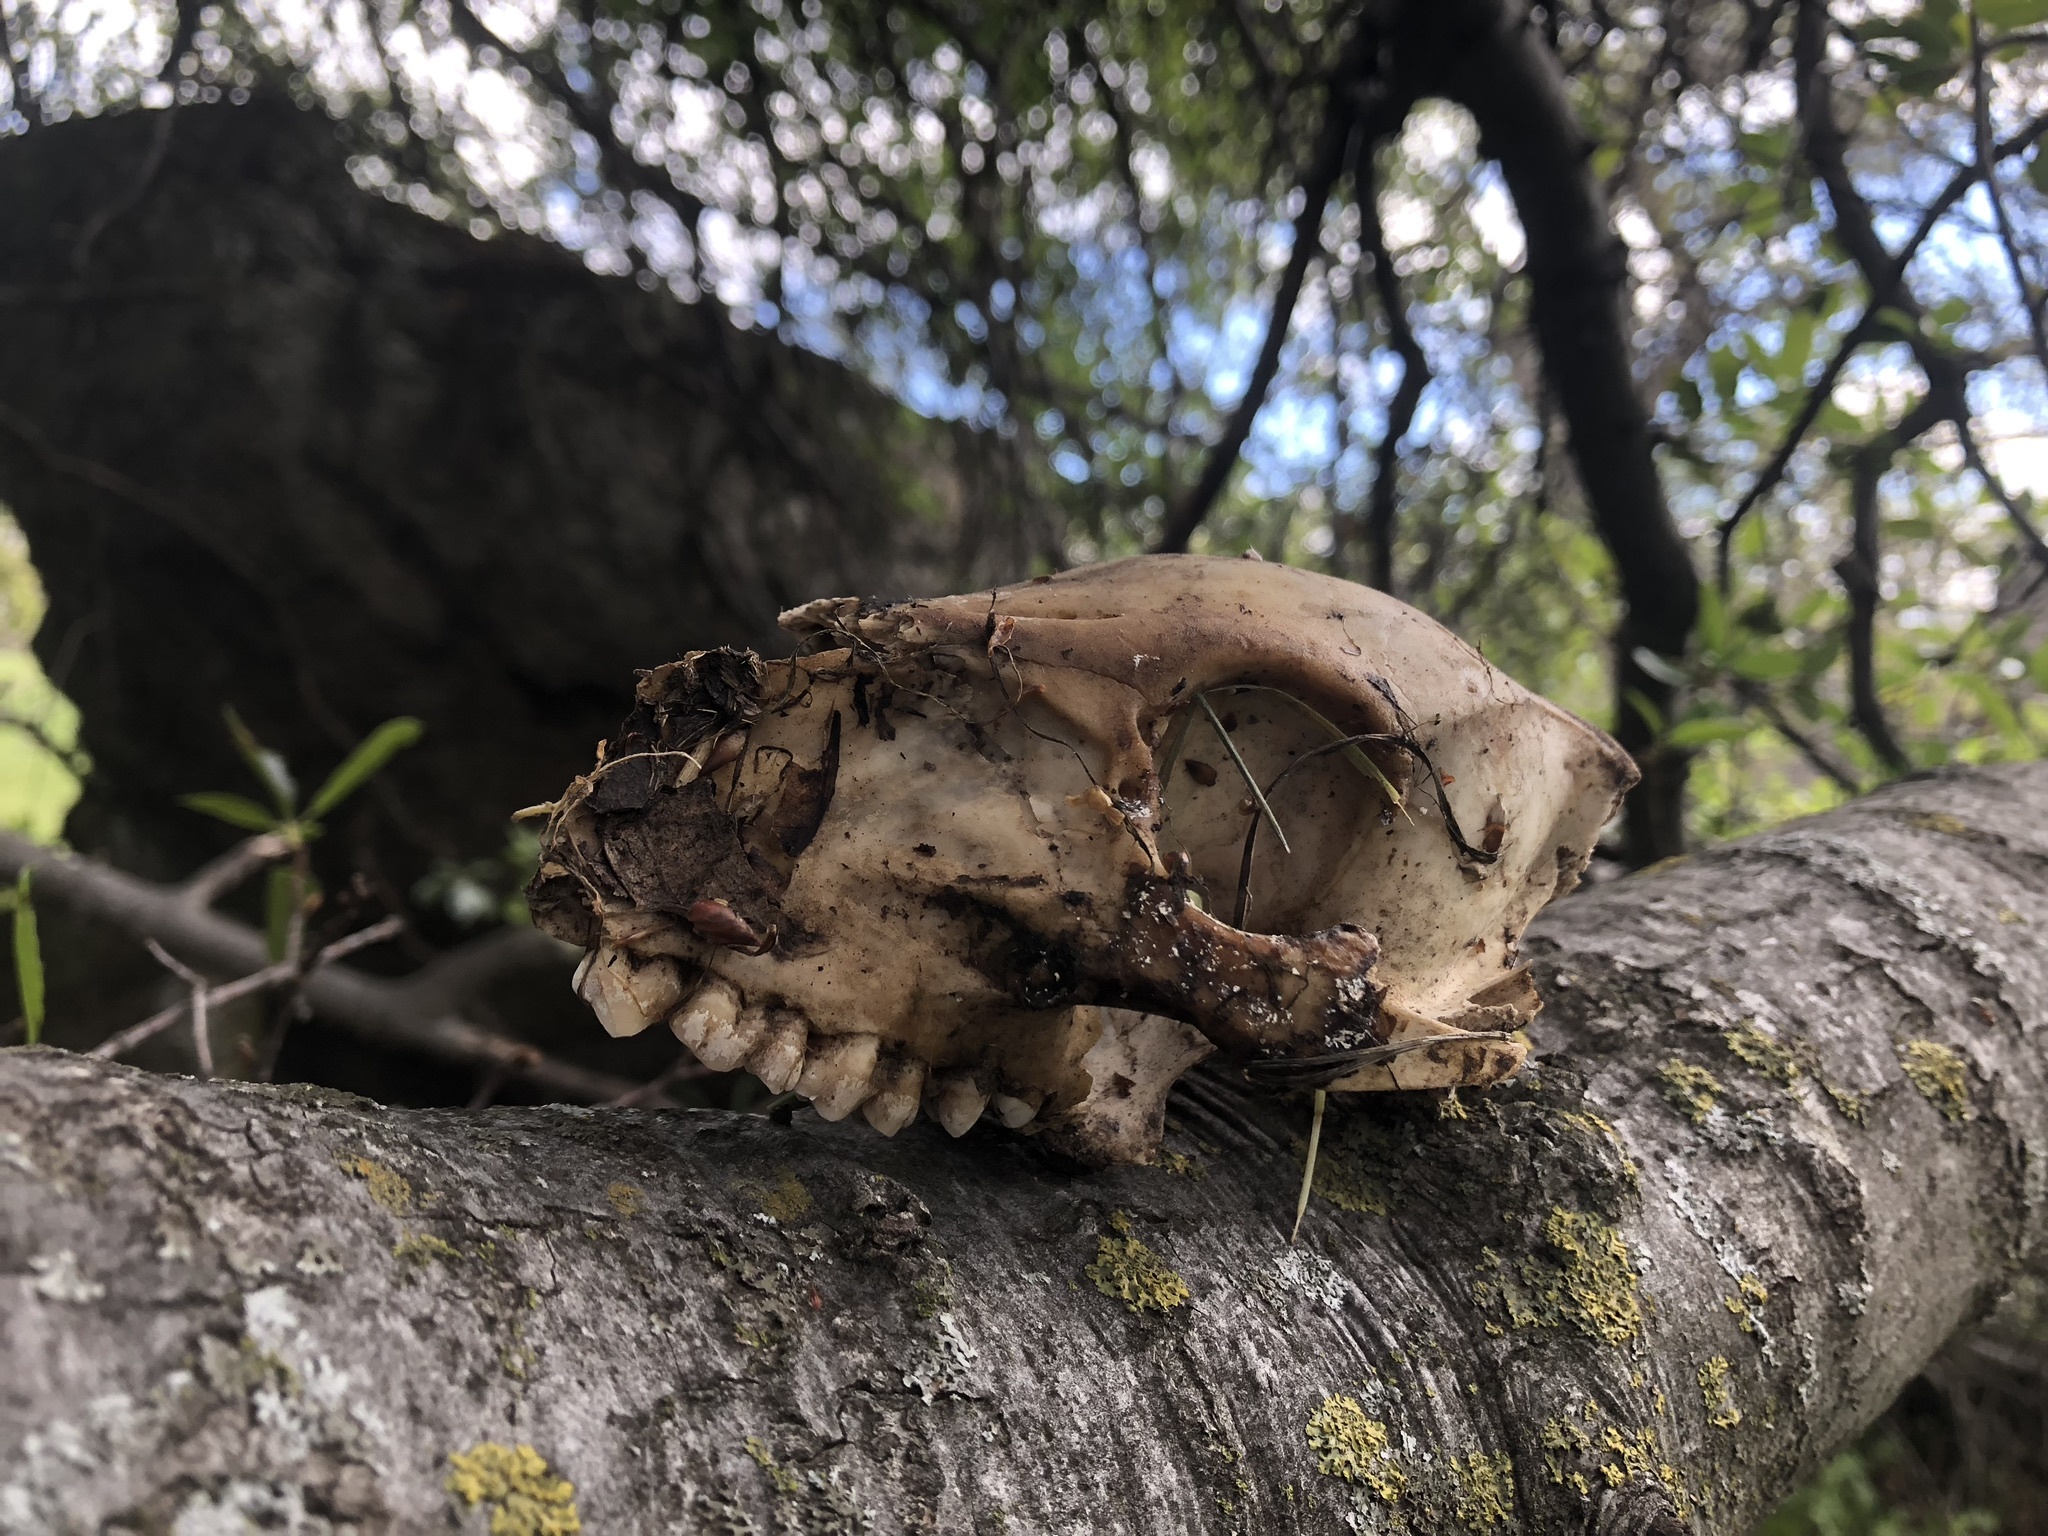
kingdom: Animalia
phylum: Chordata
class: Mammalia
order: Artiodactyla
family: Suidae
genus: Sus
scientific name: Sus scrofa
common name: Wild boar
